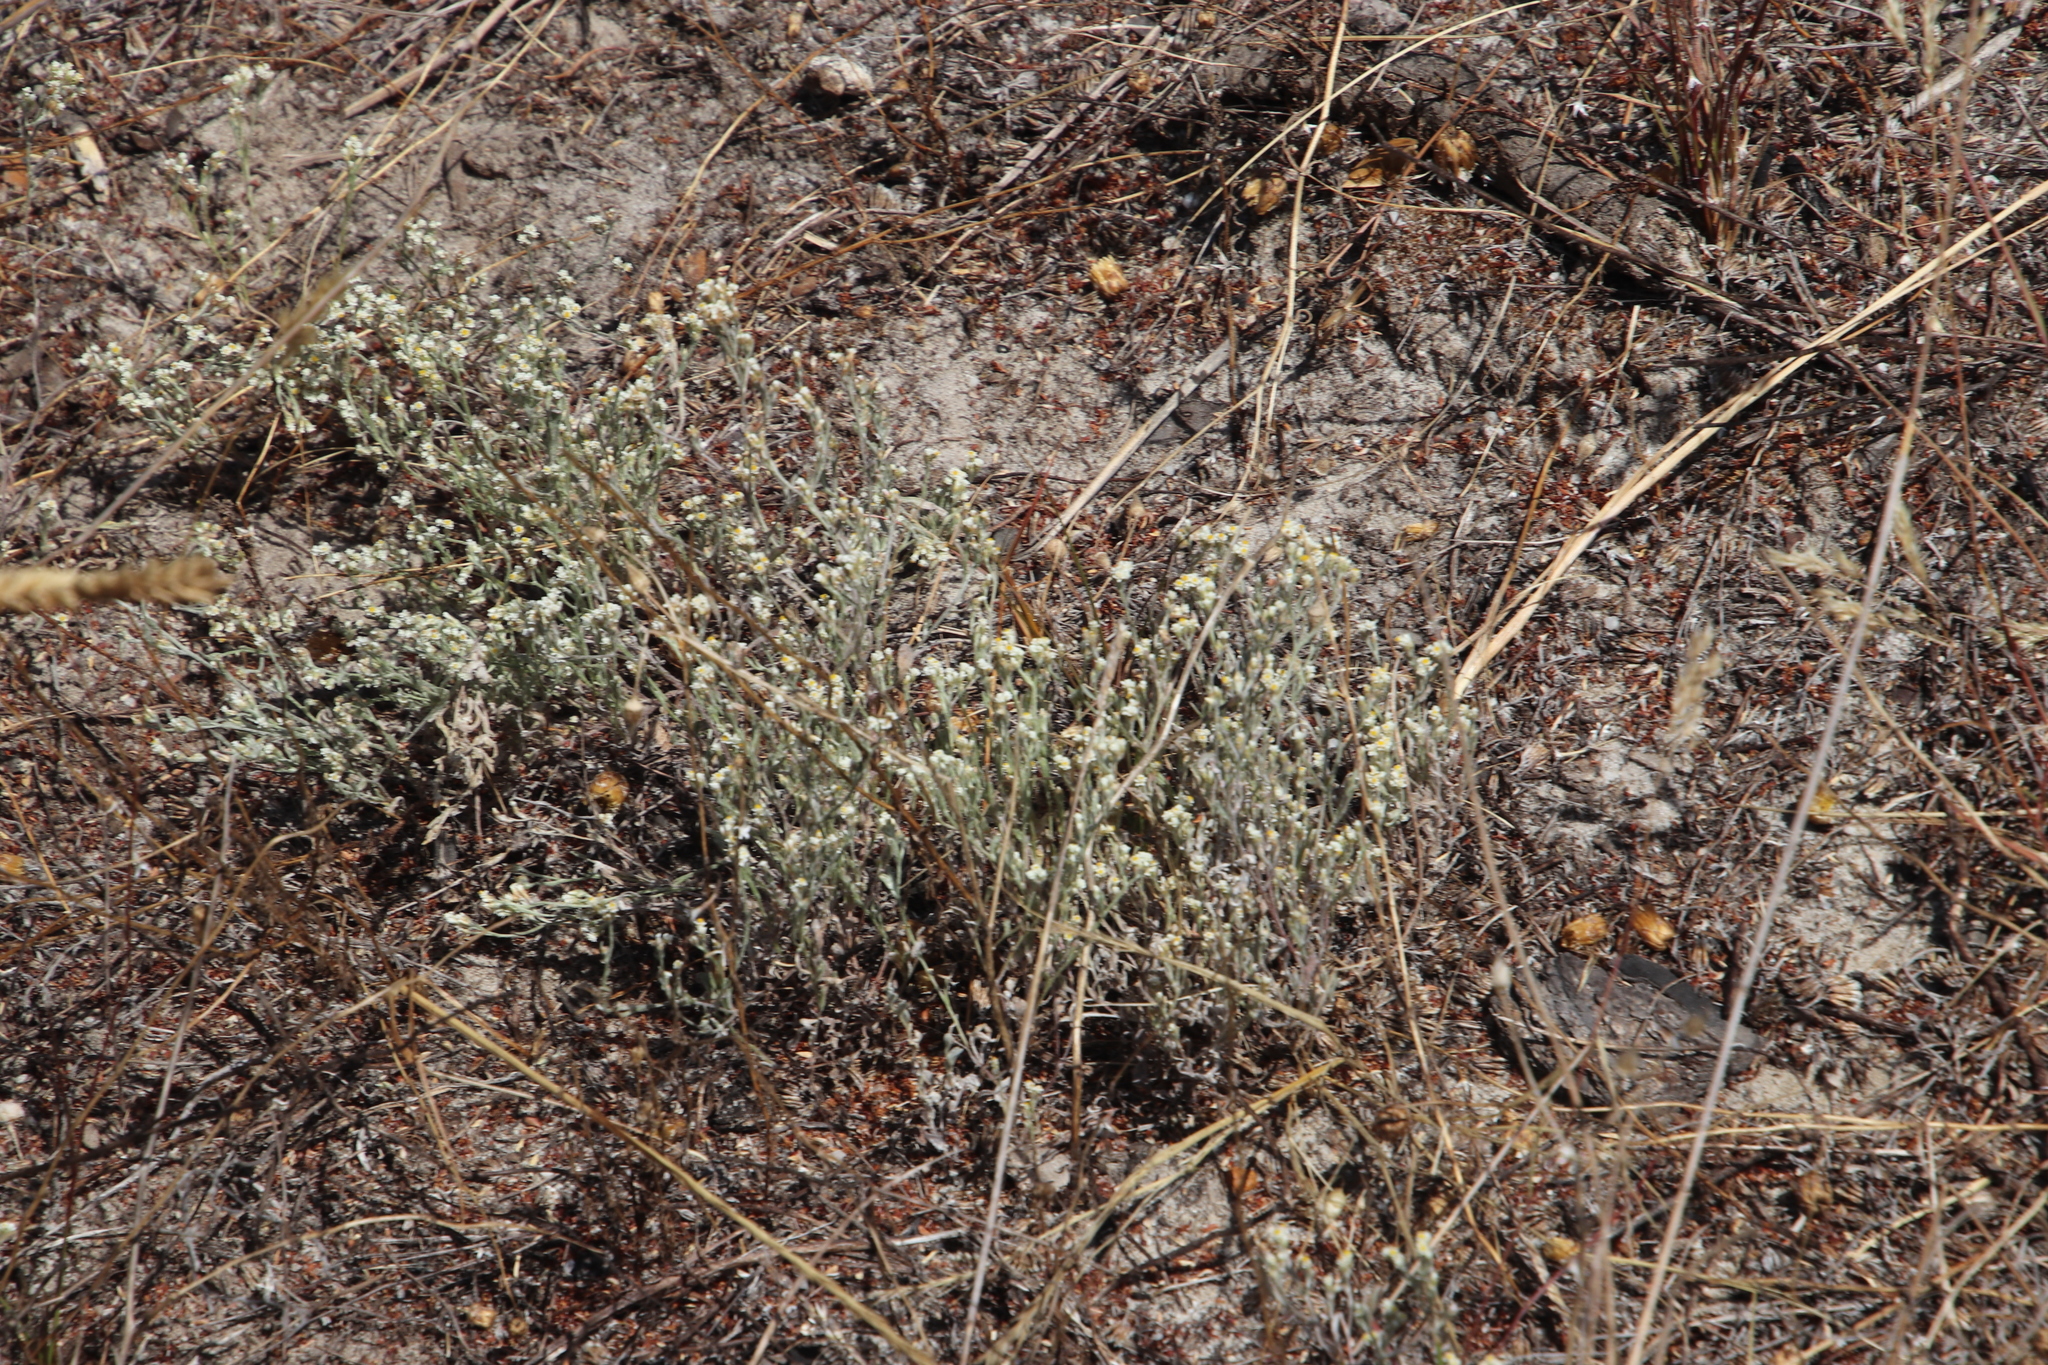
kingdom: Plantae
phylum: Tracheophyta
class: Magnoliopsida
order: Asterales
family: Asteraceae
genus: Helichrysum
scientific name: Helichrysum indicum
